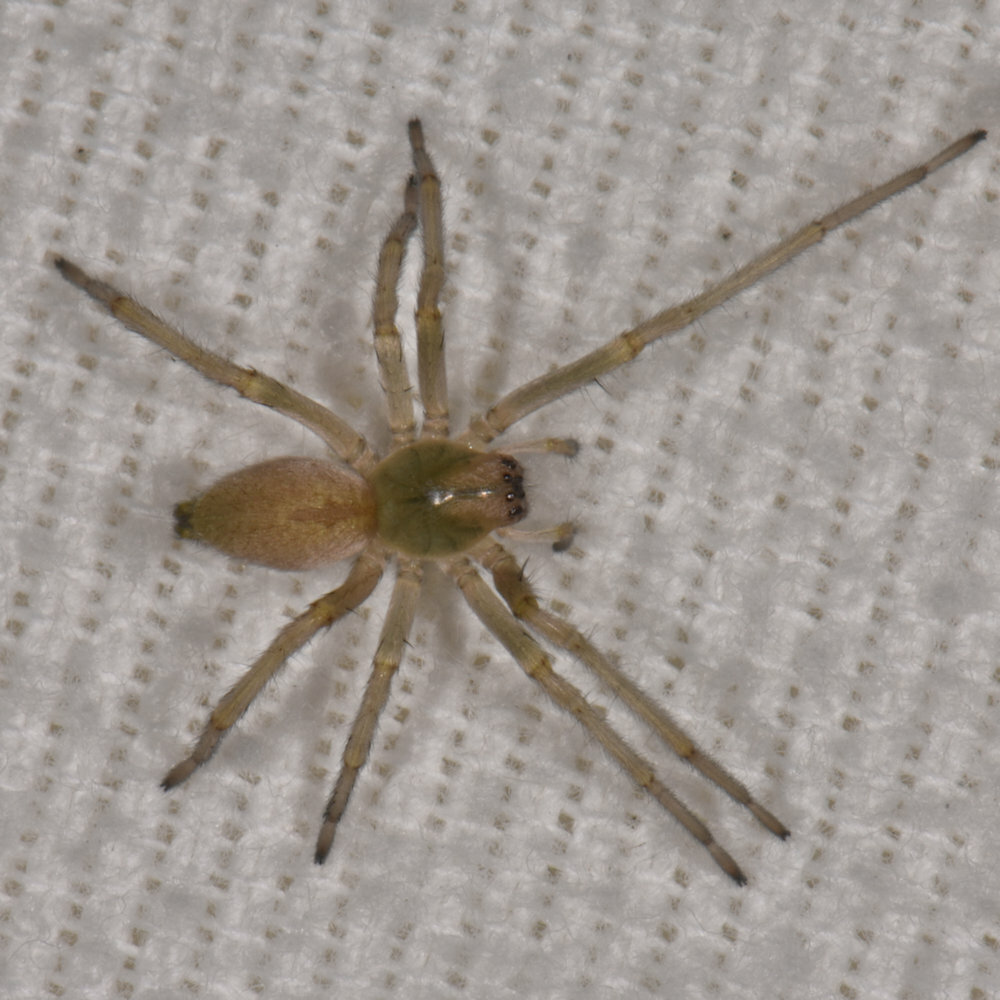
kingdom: Animalia
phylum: Arthropoda
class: Arachnida
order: Araneae
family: Cheiracanthiidae
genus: Cheiracanthium
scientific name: Cheiracanthium mildei
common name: Northern yellow sac spider
